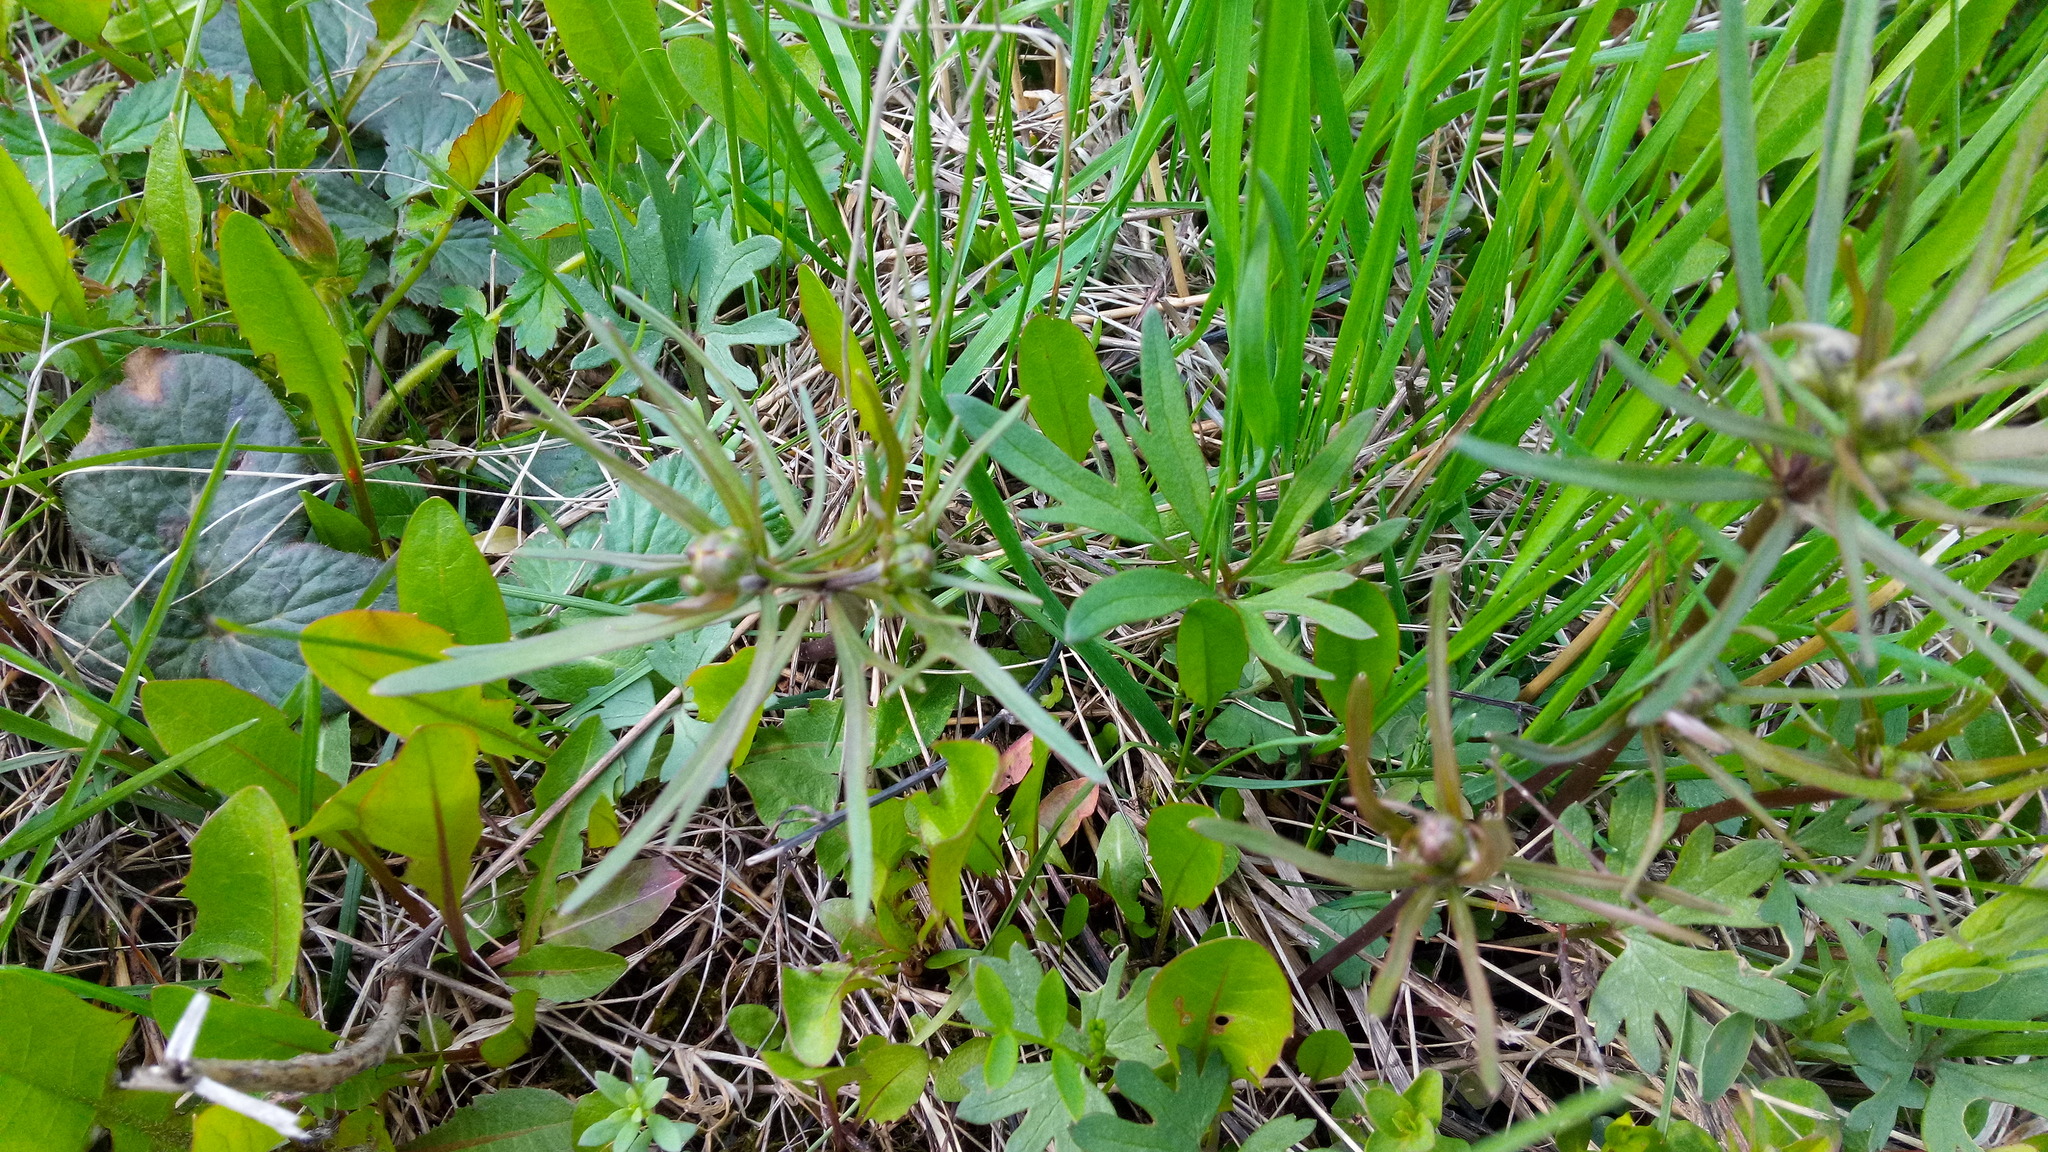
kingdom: Plantae
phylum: Tracheophyta
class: Magnoliopsida
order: Ranunculales
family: Ranunculaceae
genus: Ranunculus
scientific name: Ranunculus auricomus
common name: Goldilocks buttercup
